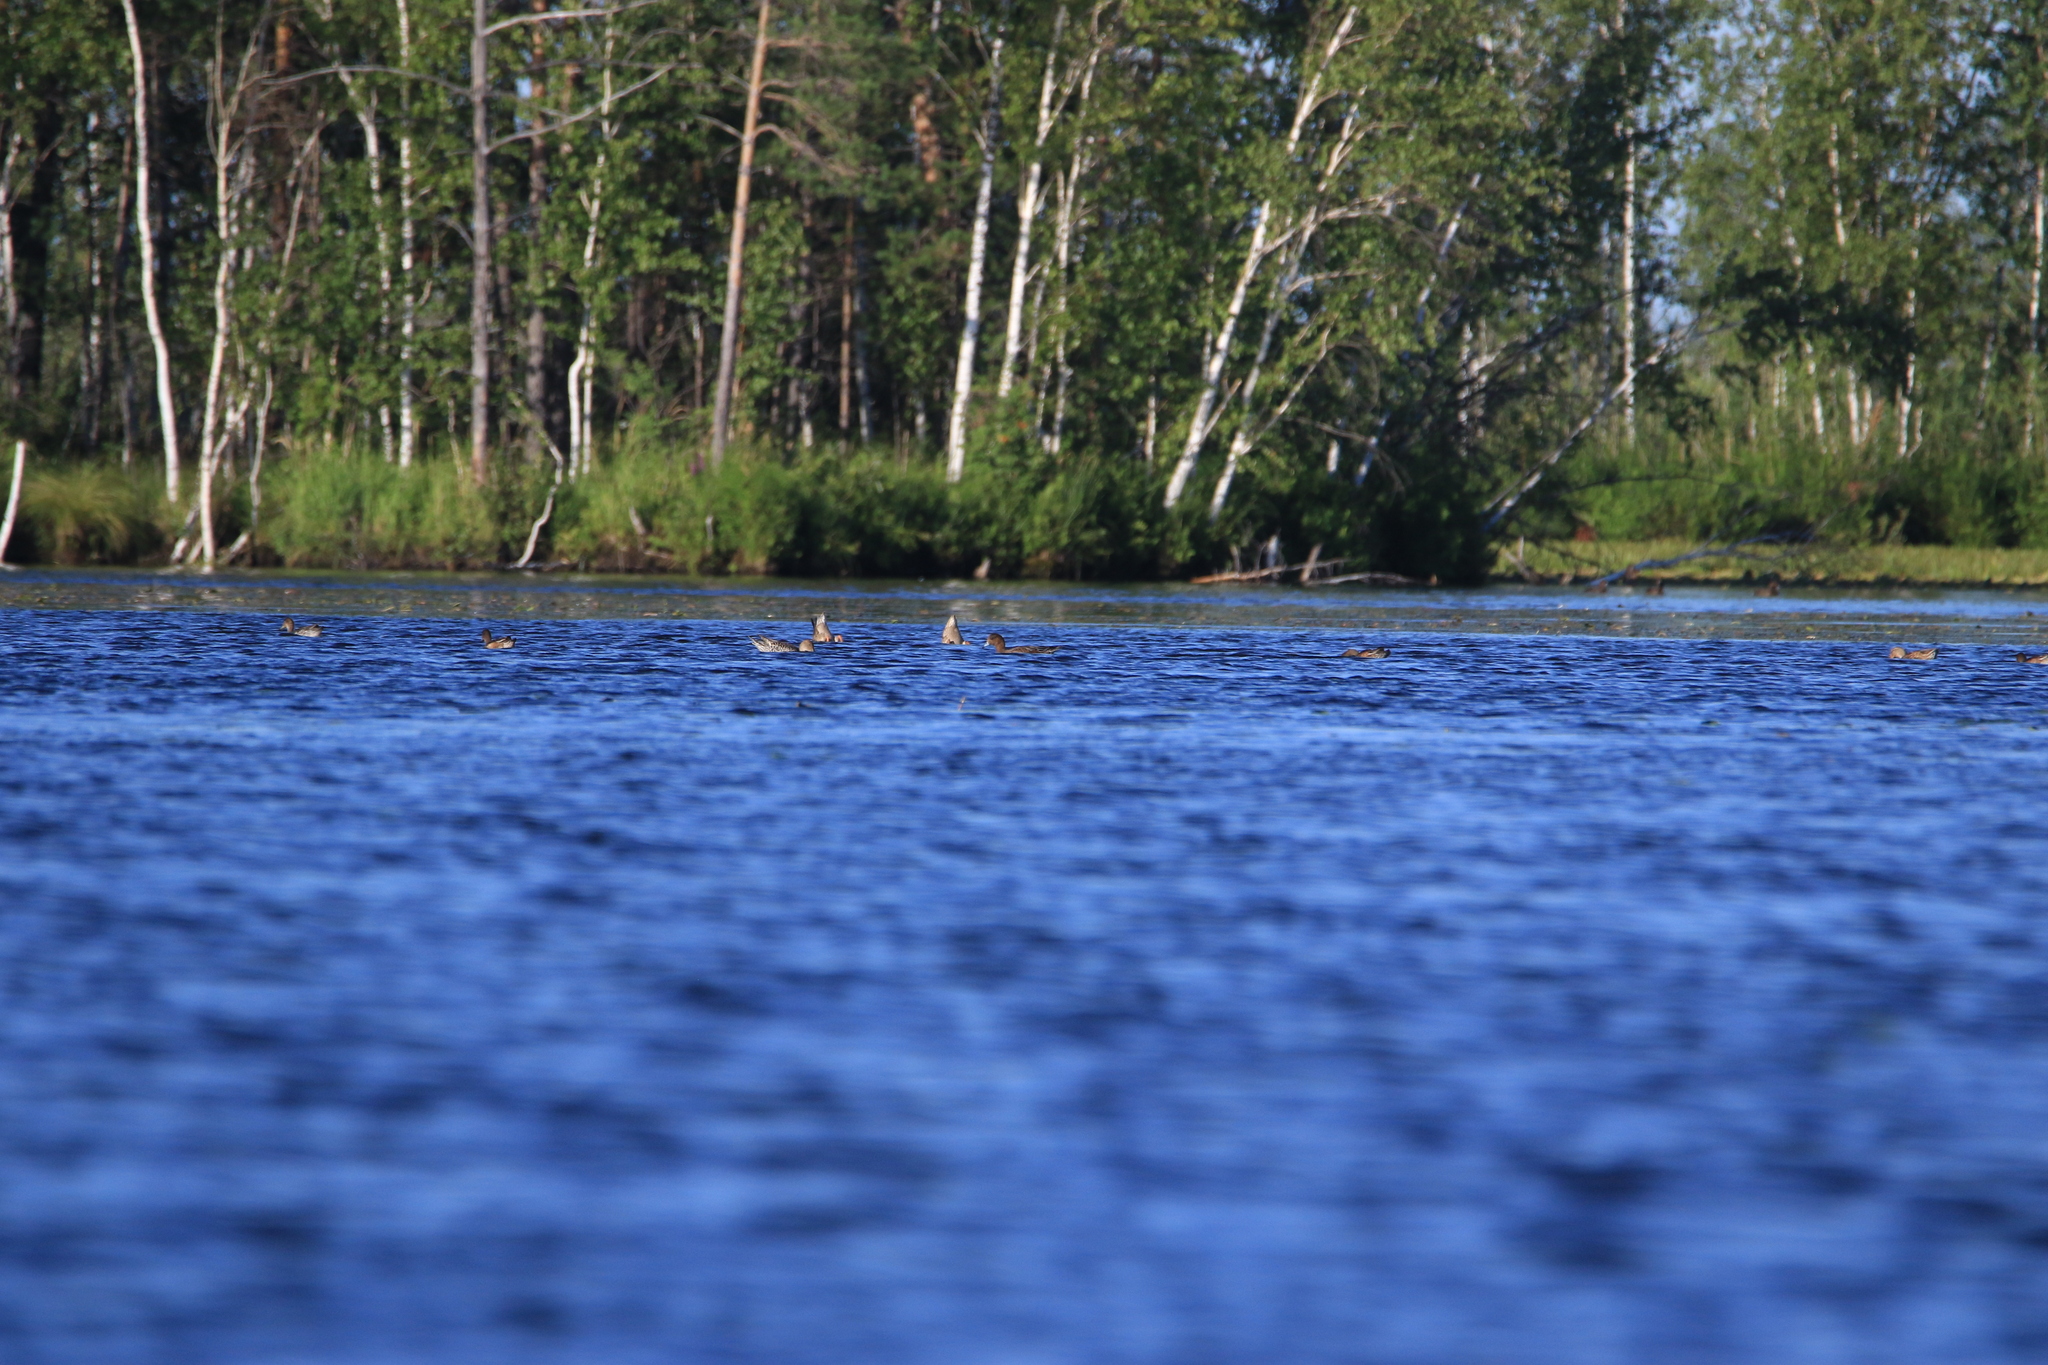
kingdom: Animalia
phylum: Chordata
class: Aves
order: Anseriformes
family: Anatidae
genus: Mareca
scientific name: Mareca penelope
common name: Eurasian wigeon
